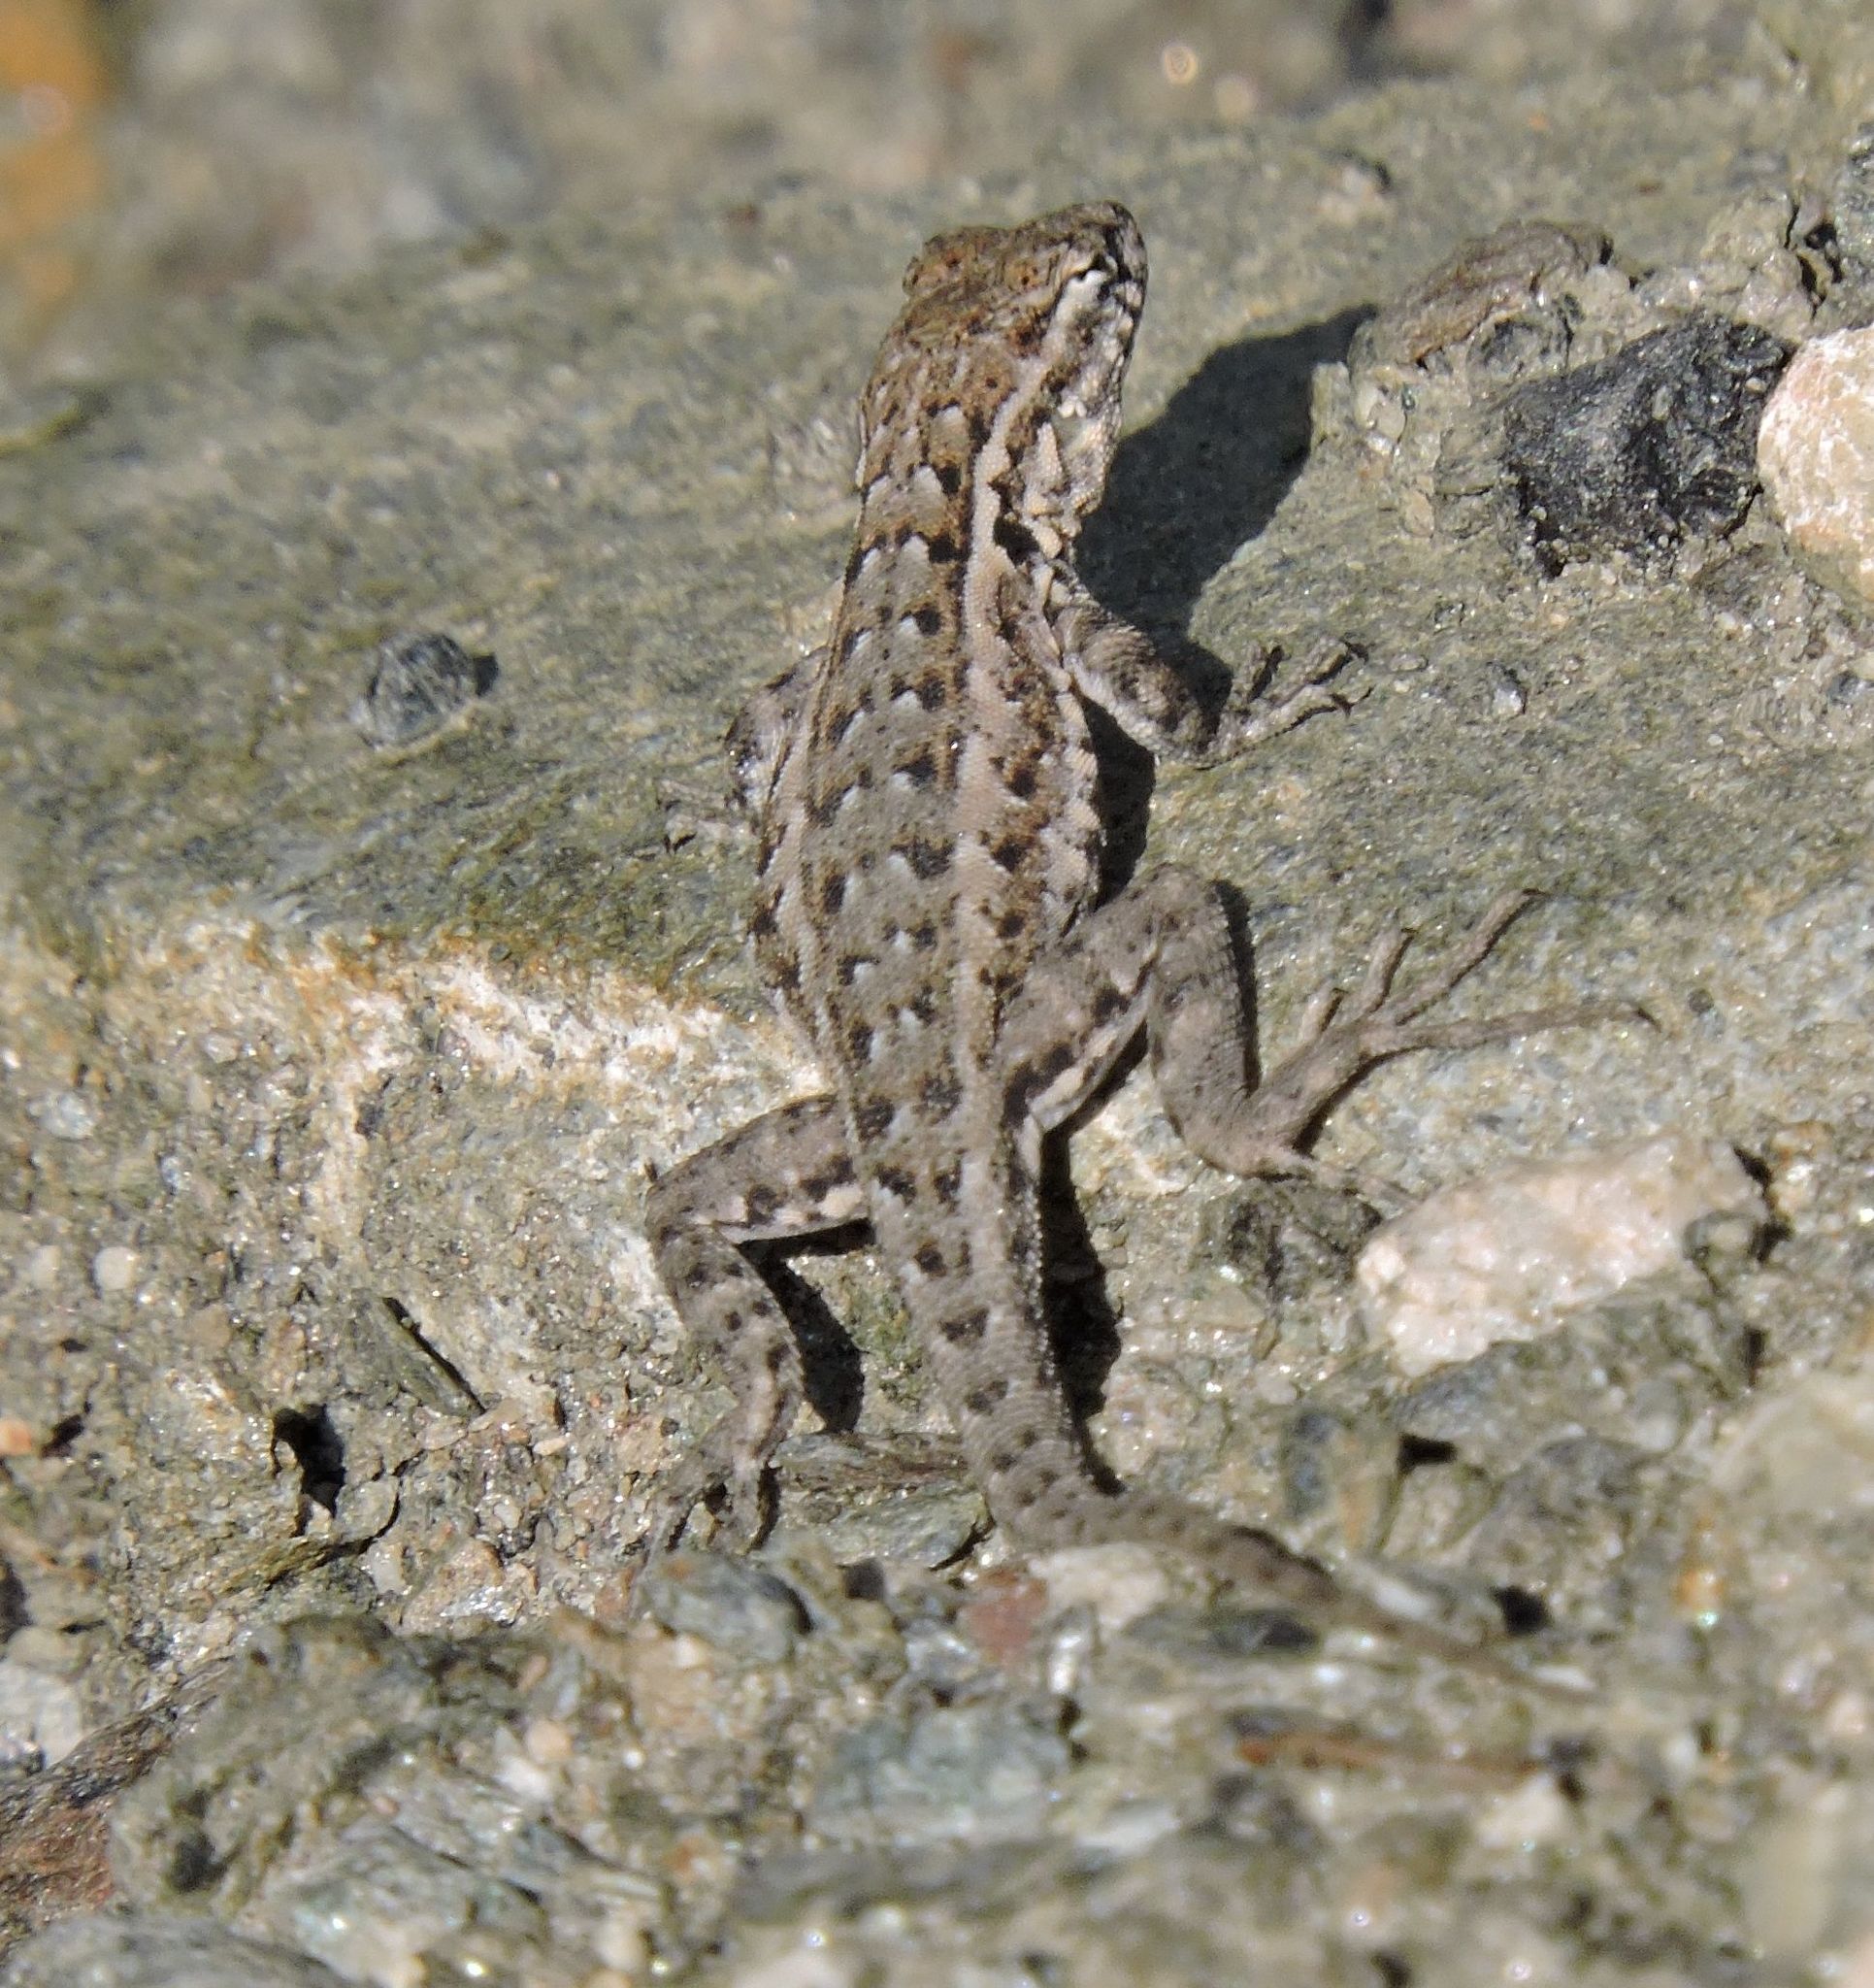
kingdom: Animalia
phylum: Chordata
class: Squamata
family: Phrynosomatidae
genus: Uta
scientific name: Uta stansburiana
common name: Side-blotched lizard
